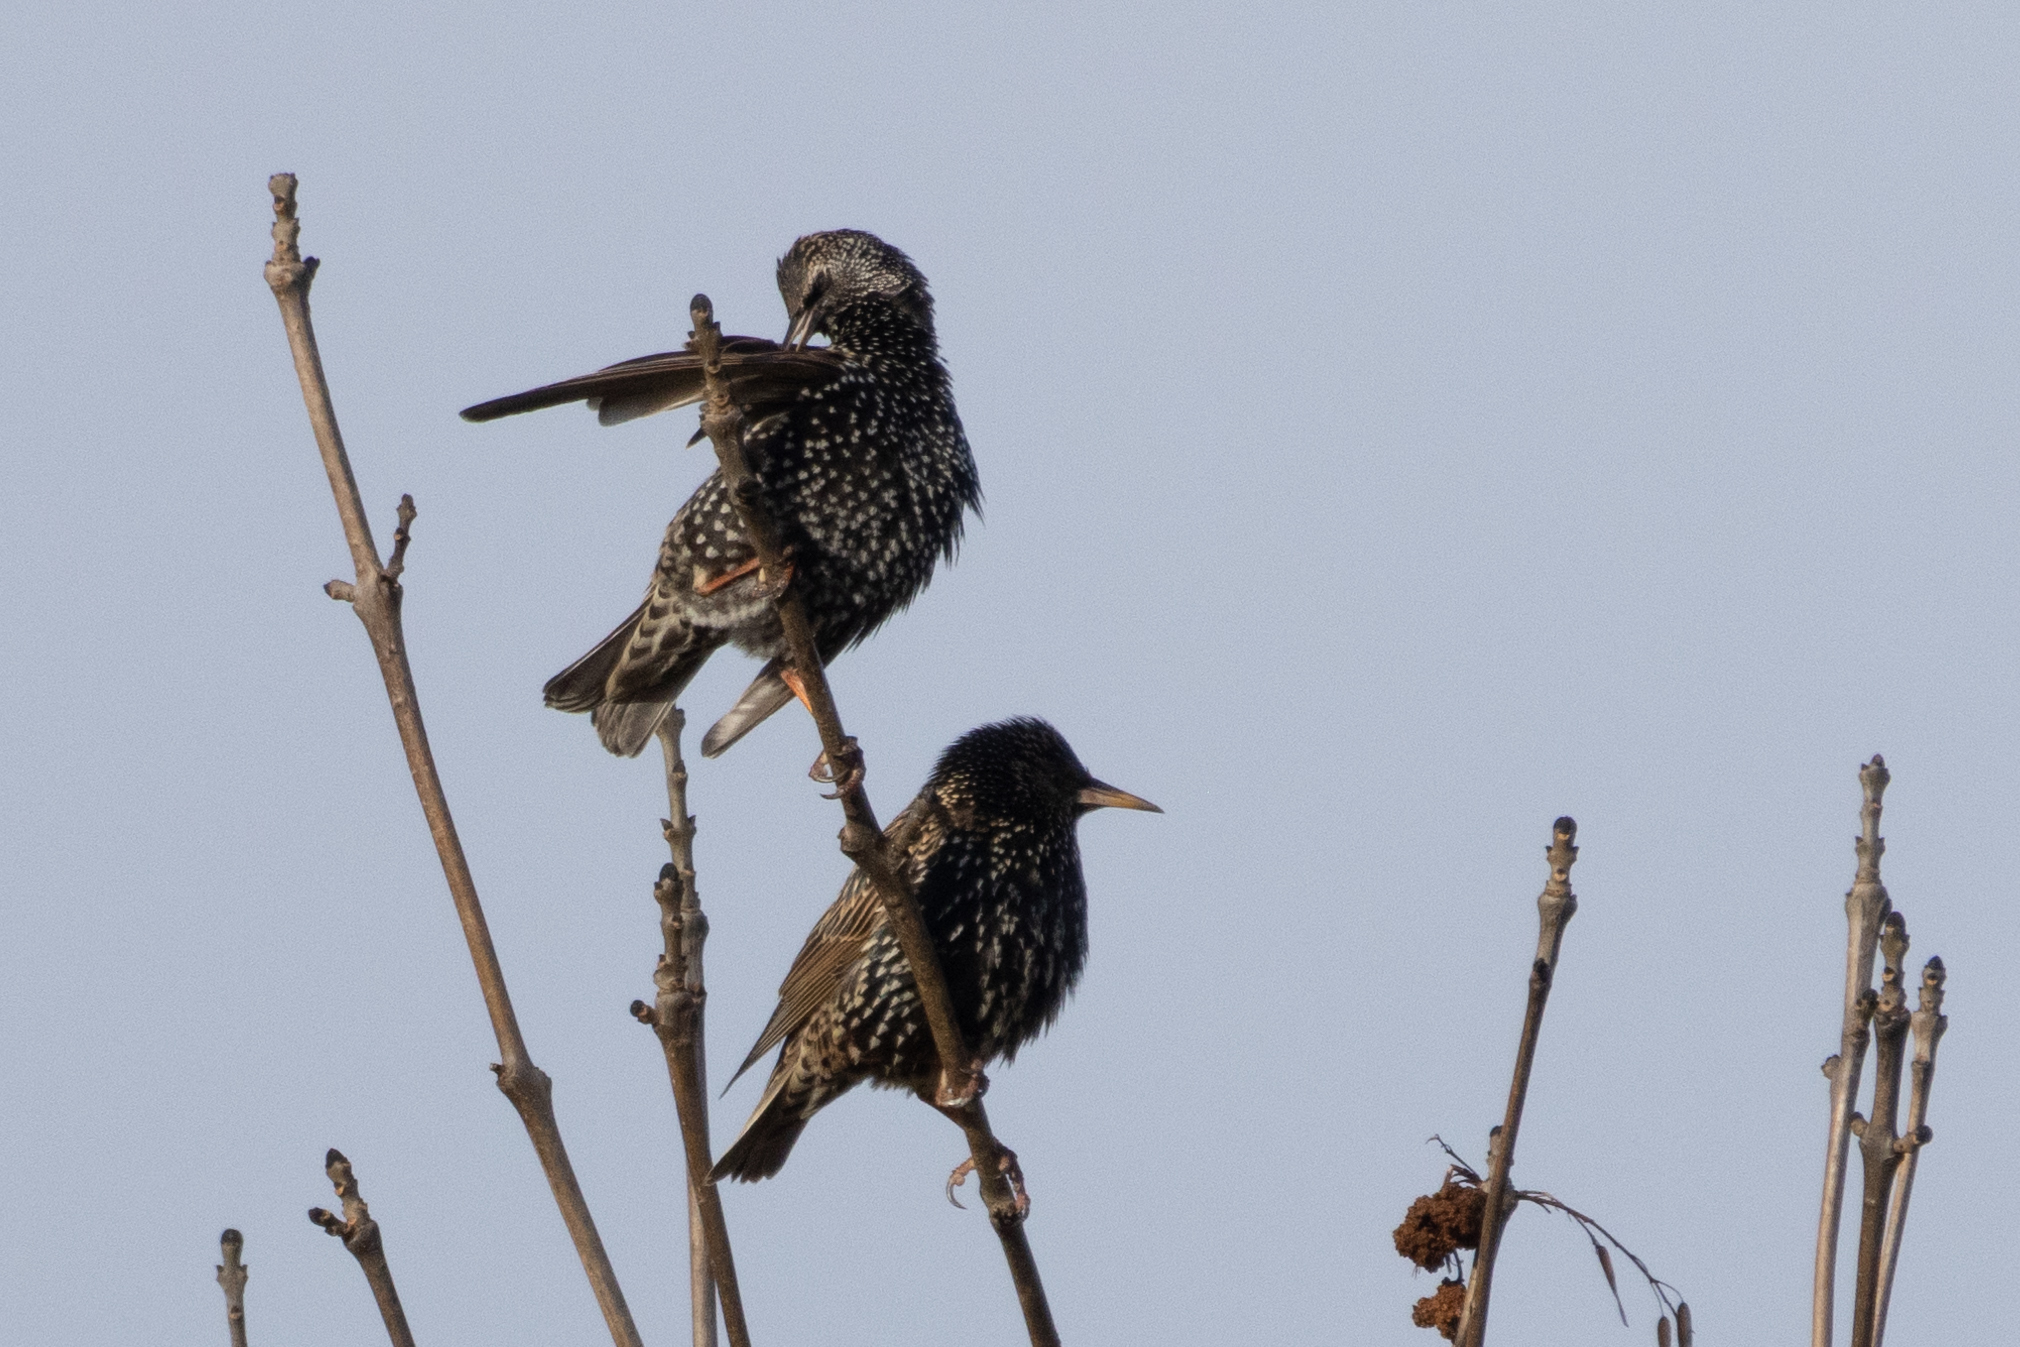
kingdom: Animalia
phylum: Chordata
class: Aves
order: Passeriformes
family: Sturnidae
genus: Sturnus
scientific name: Sturnus vulgaris
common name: Common starling
